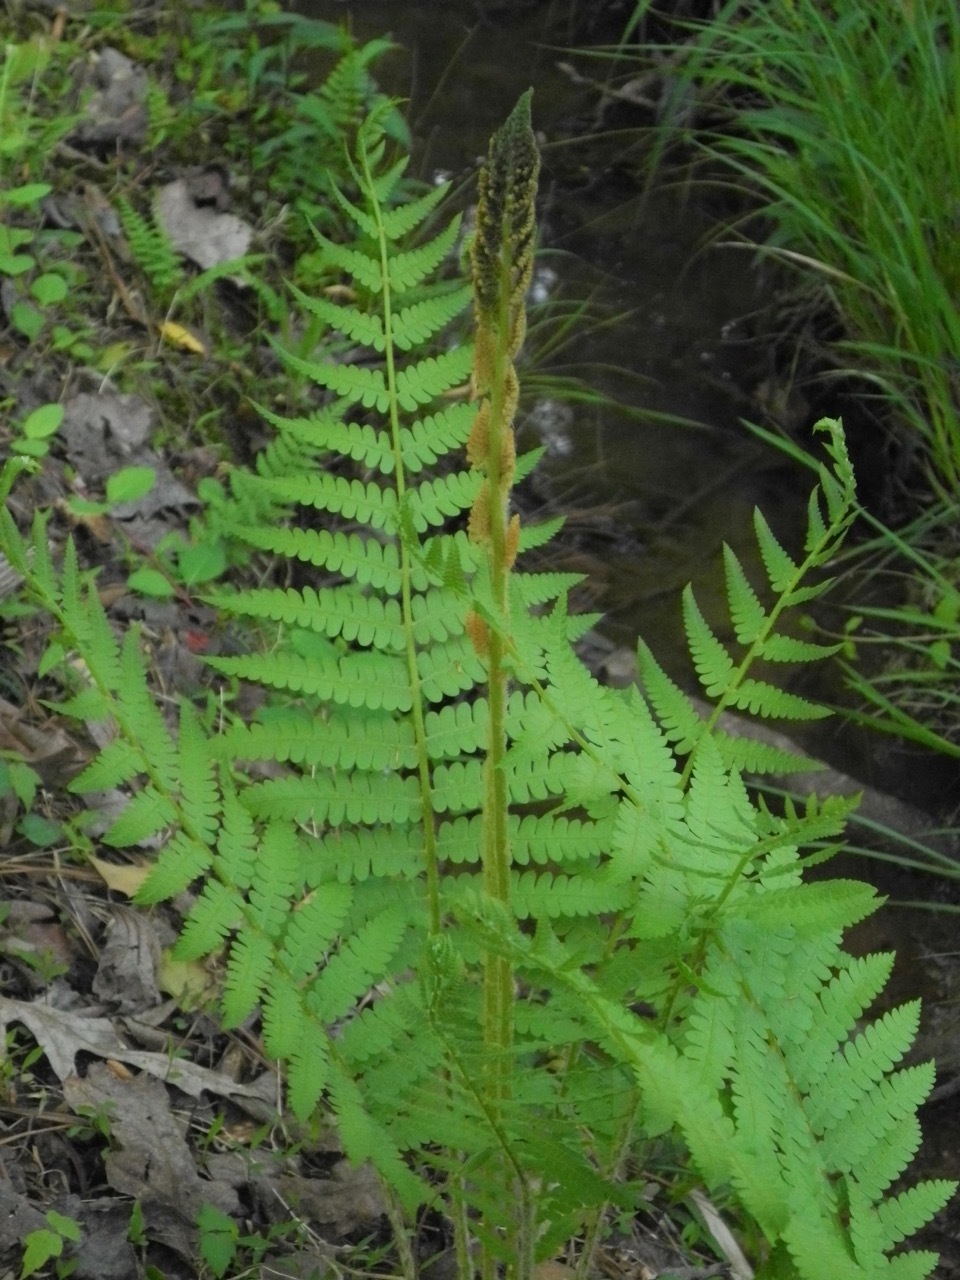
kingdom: Plantae
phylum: Tracheophyta
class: Polypodiopsida
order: Osmundales
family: Osmundaceae
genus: Osmundastrum
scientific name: Osmundastrum cinnamomeum
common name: Cinnamon fern
